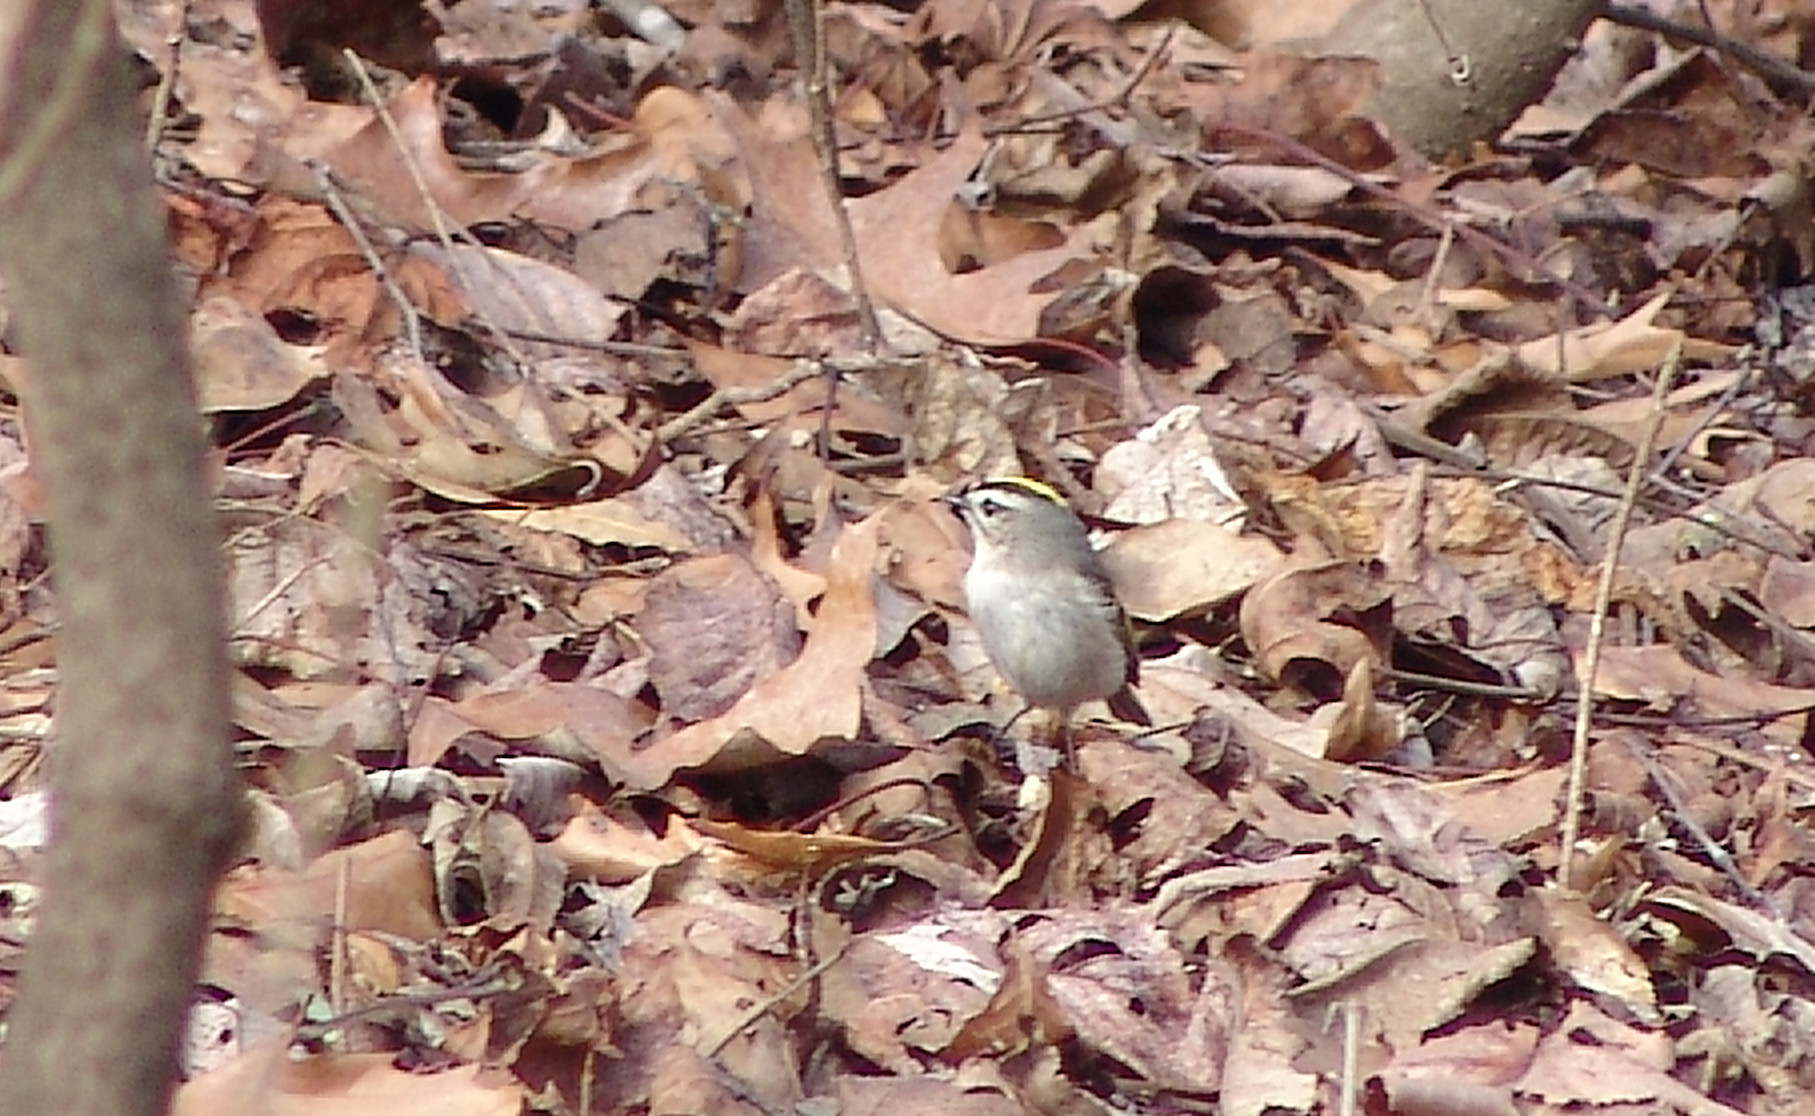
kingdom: Animalia
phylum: Chordata
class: Aves
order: Passeriformes
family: Regulidae
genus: Regulus
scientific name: Regulus satrapa
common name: Golden-crowned kinglet
